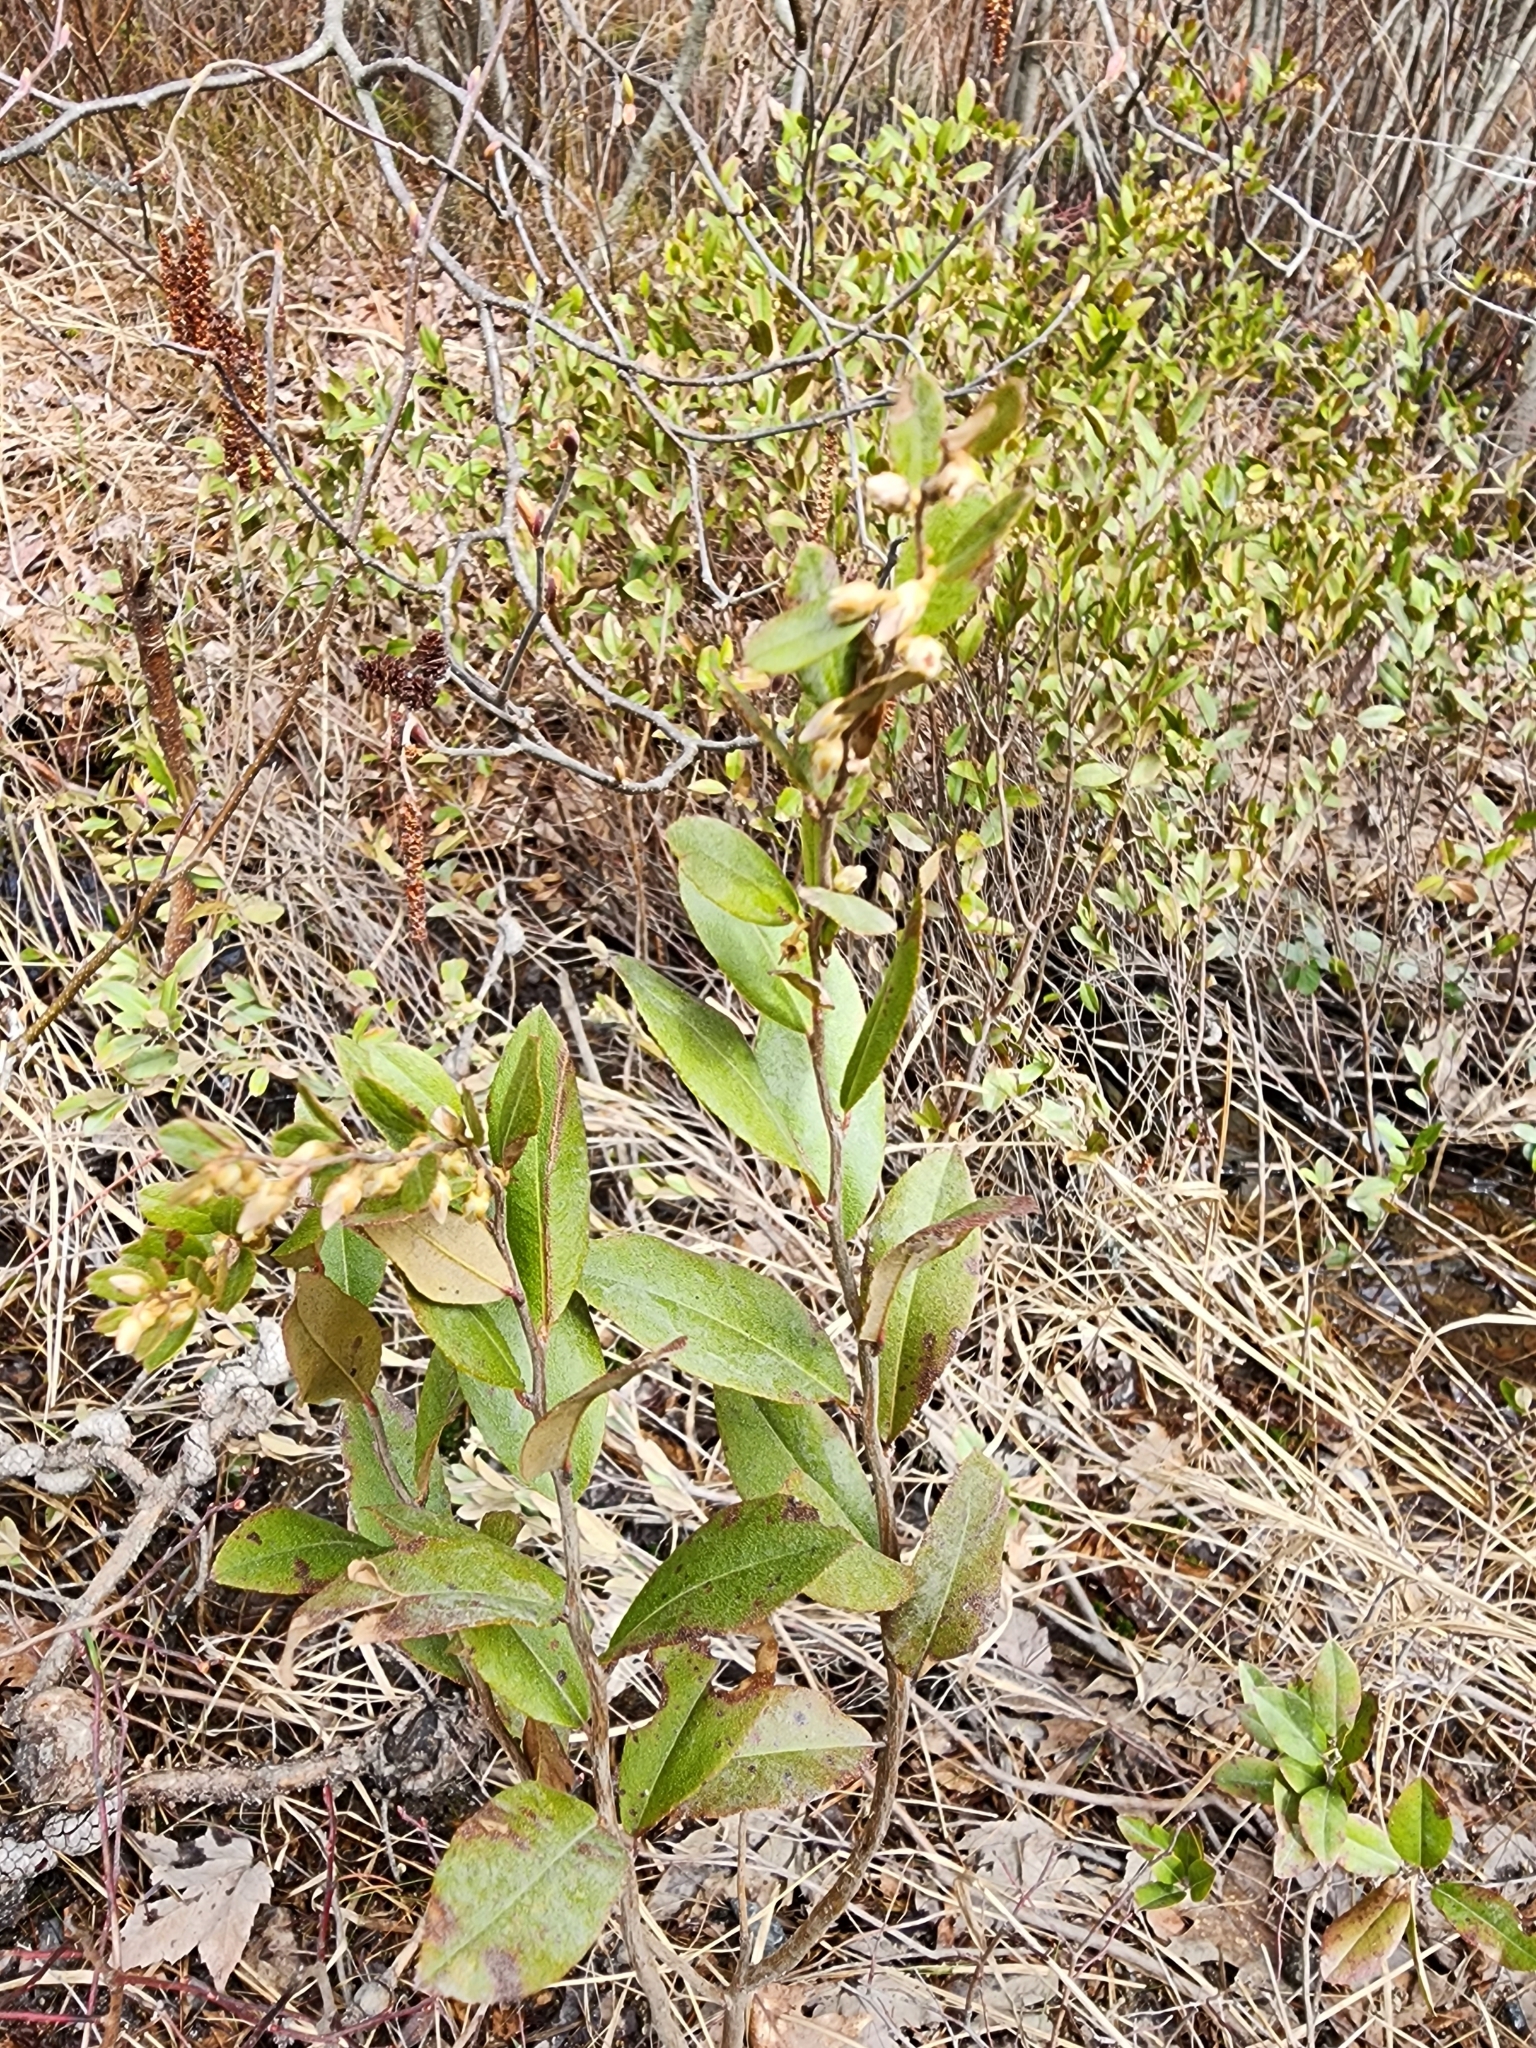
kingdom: Plantae
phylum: Tracheophyta
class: Magnoliopsida
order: Ericales
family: Ericaceae
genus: Chamaedaphne
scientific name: Chamaedaphne calyculata
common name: Leatherleaf
